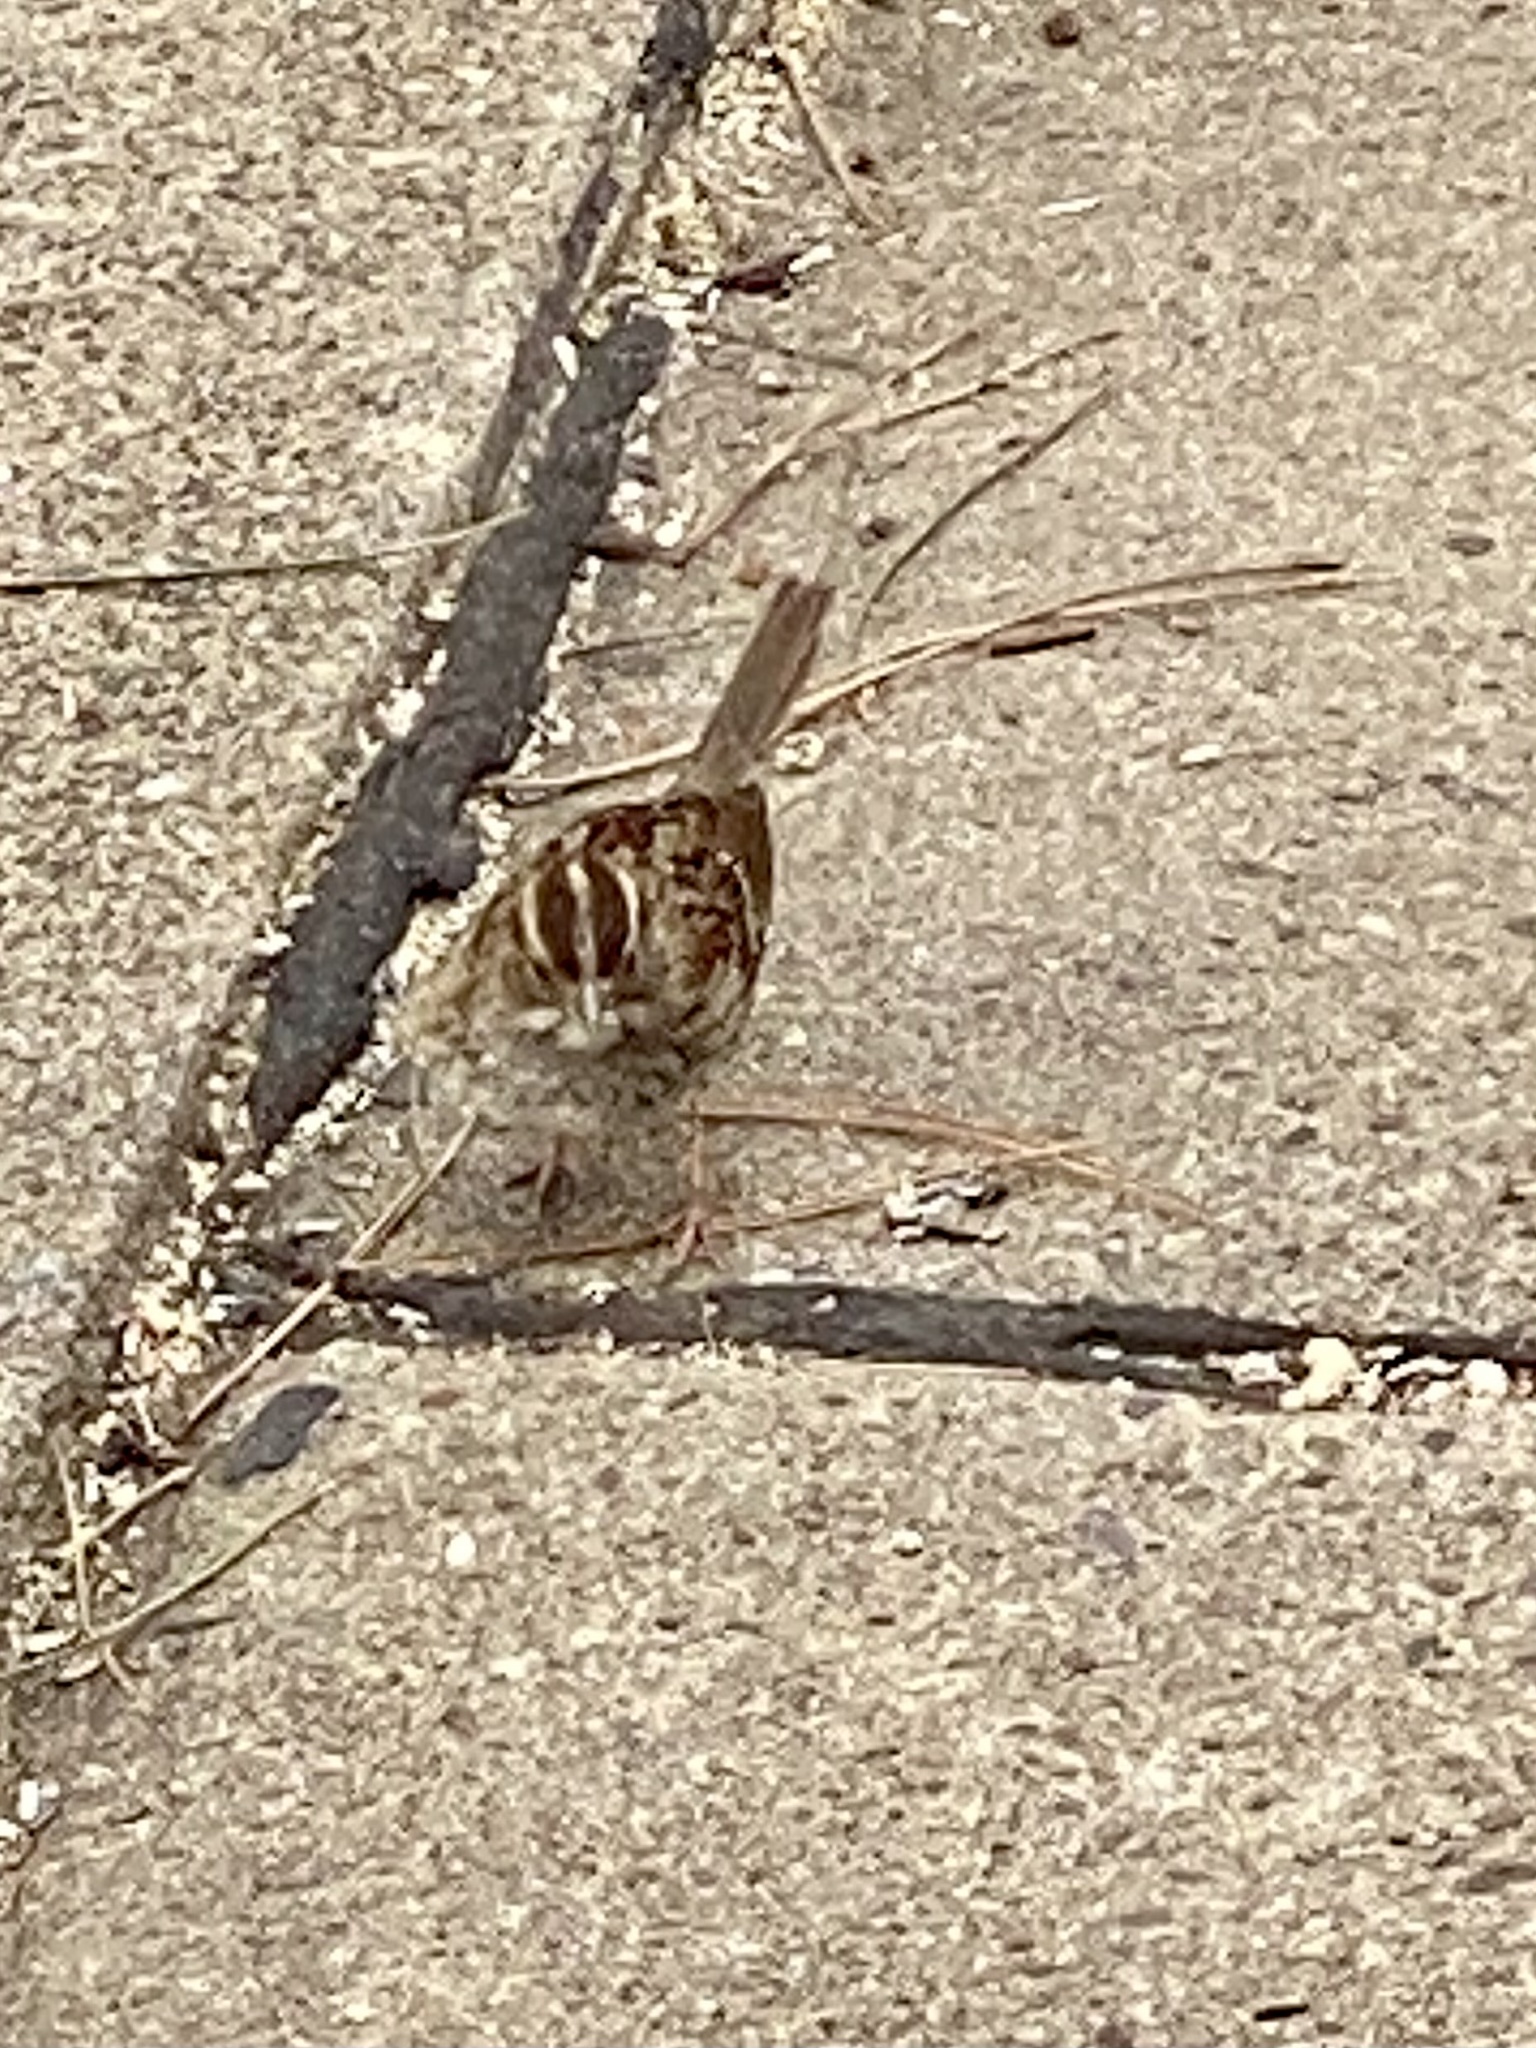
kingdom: Animalia
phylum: Chordata
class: Aves
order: Passeriformes
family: Passerellidae
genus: Zonotrichia
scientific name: Zonotrichia albicollis
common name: White-throated sparrow
